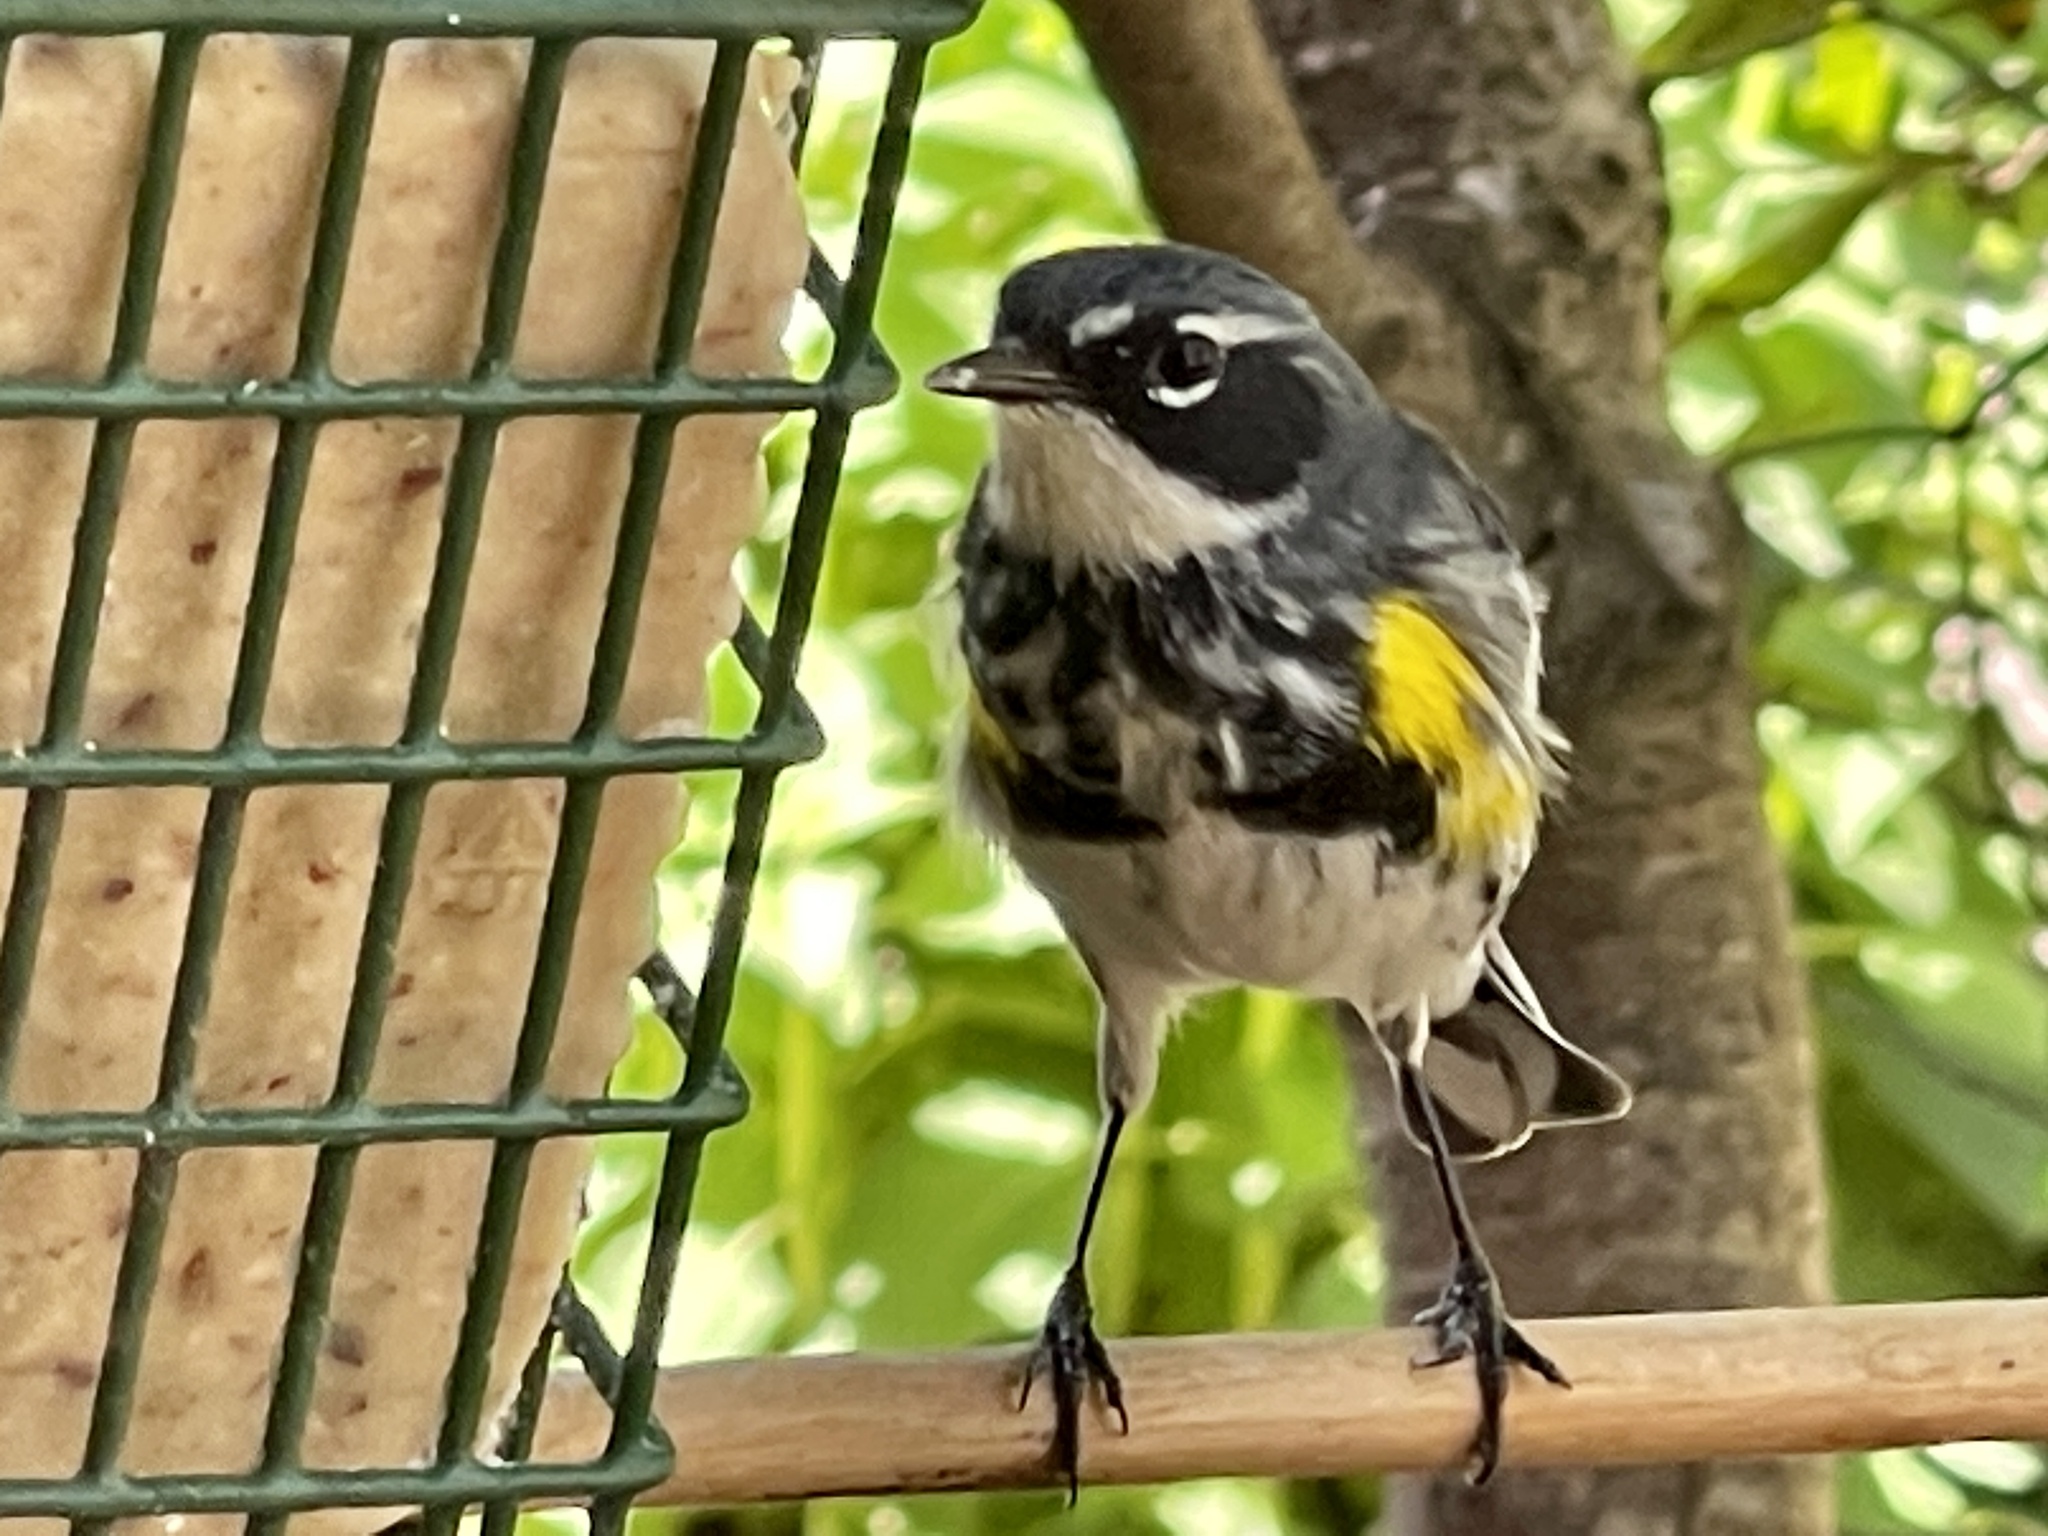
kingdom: Animalia
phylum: Chordata
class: Aves
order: Passeriformes
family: Parulidae
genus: Setophaga
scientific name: Setophaga coronata
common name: Myrtle warbler
